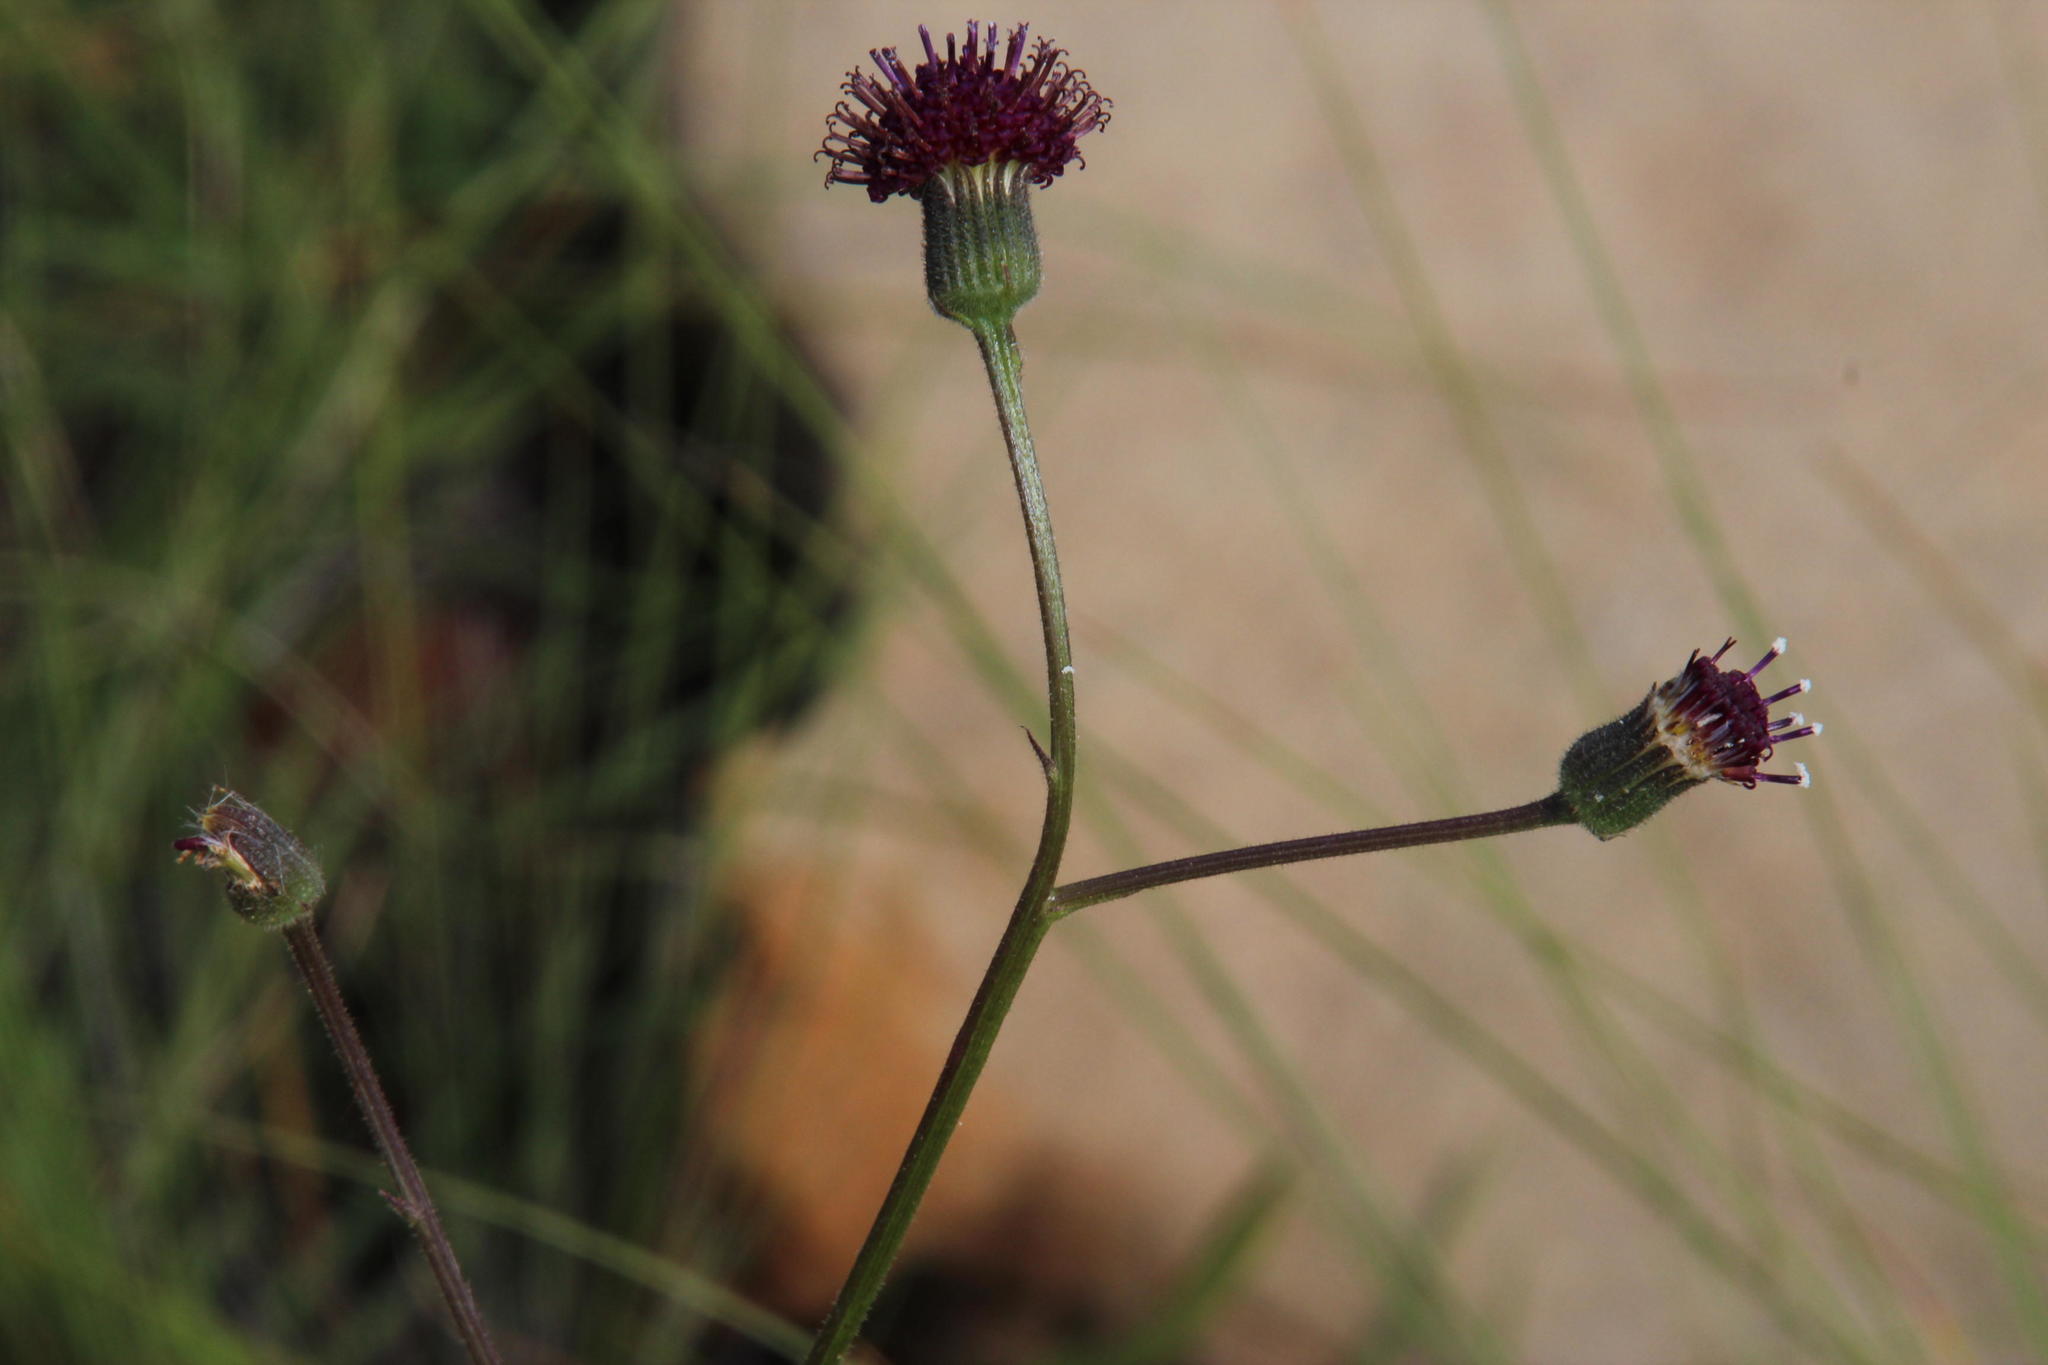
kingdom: Plantae
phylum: Tracheophyta
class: Magnoliopsida
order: Asterales
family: Asteraceae
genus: Senecio
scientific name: Senecio erubescens
